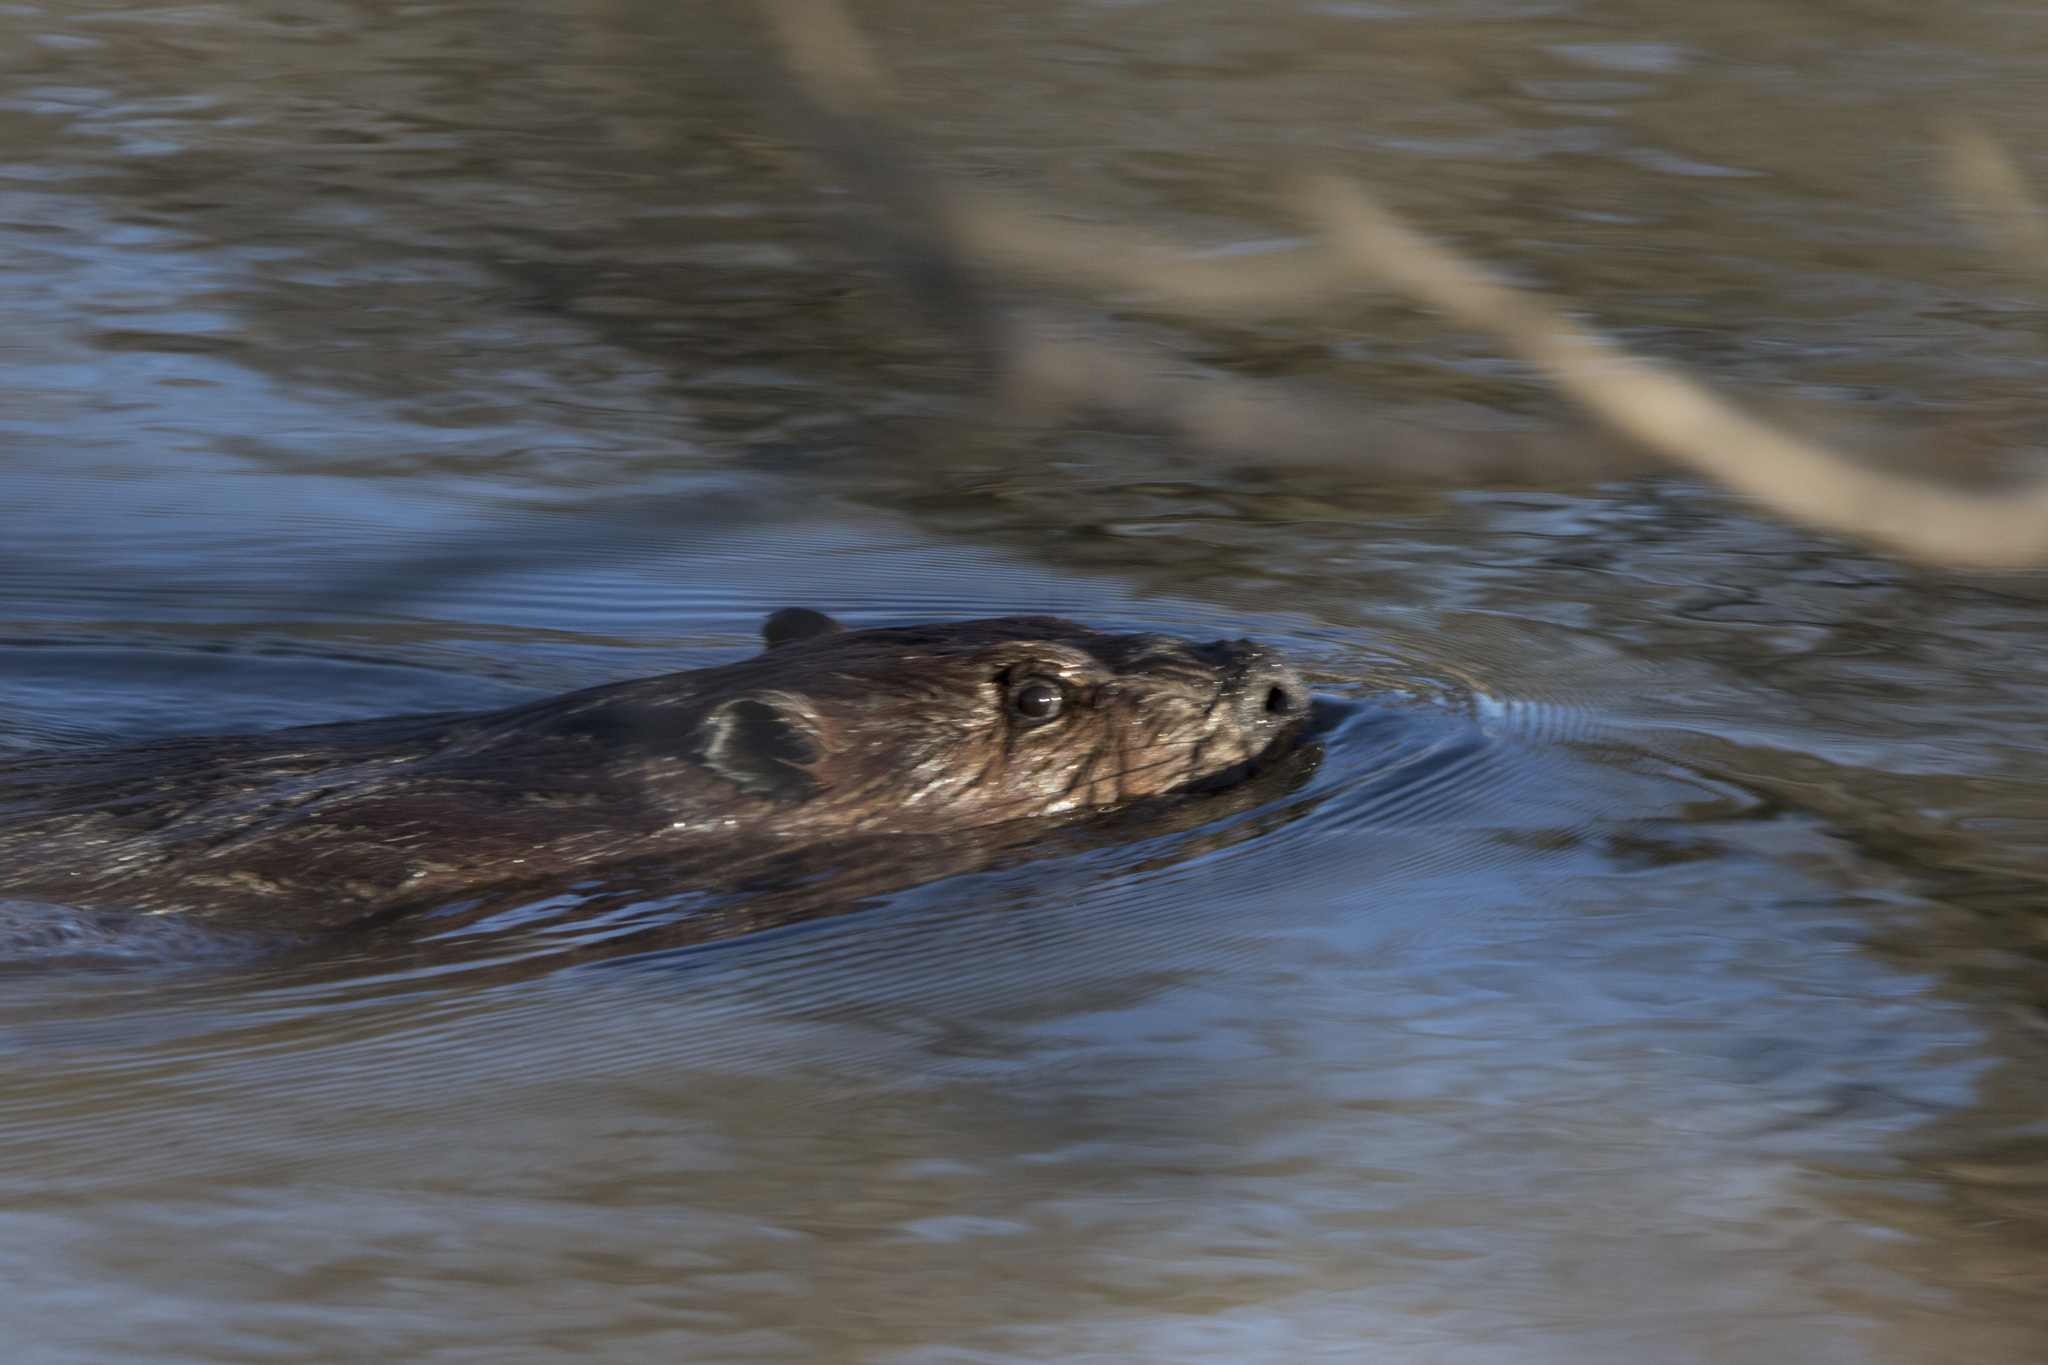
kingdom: Animalia
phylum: Chordata
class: Mammalia
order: Rodentia
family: Castoridae
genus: Castor
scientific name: Castor canadensis
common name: American beaver
